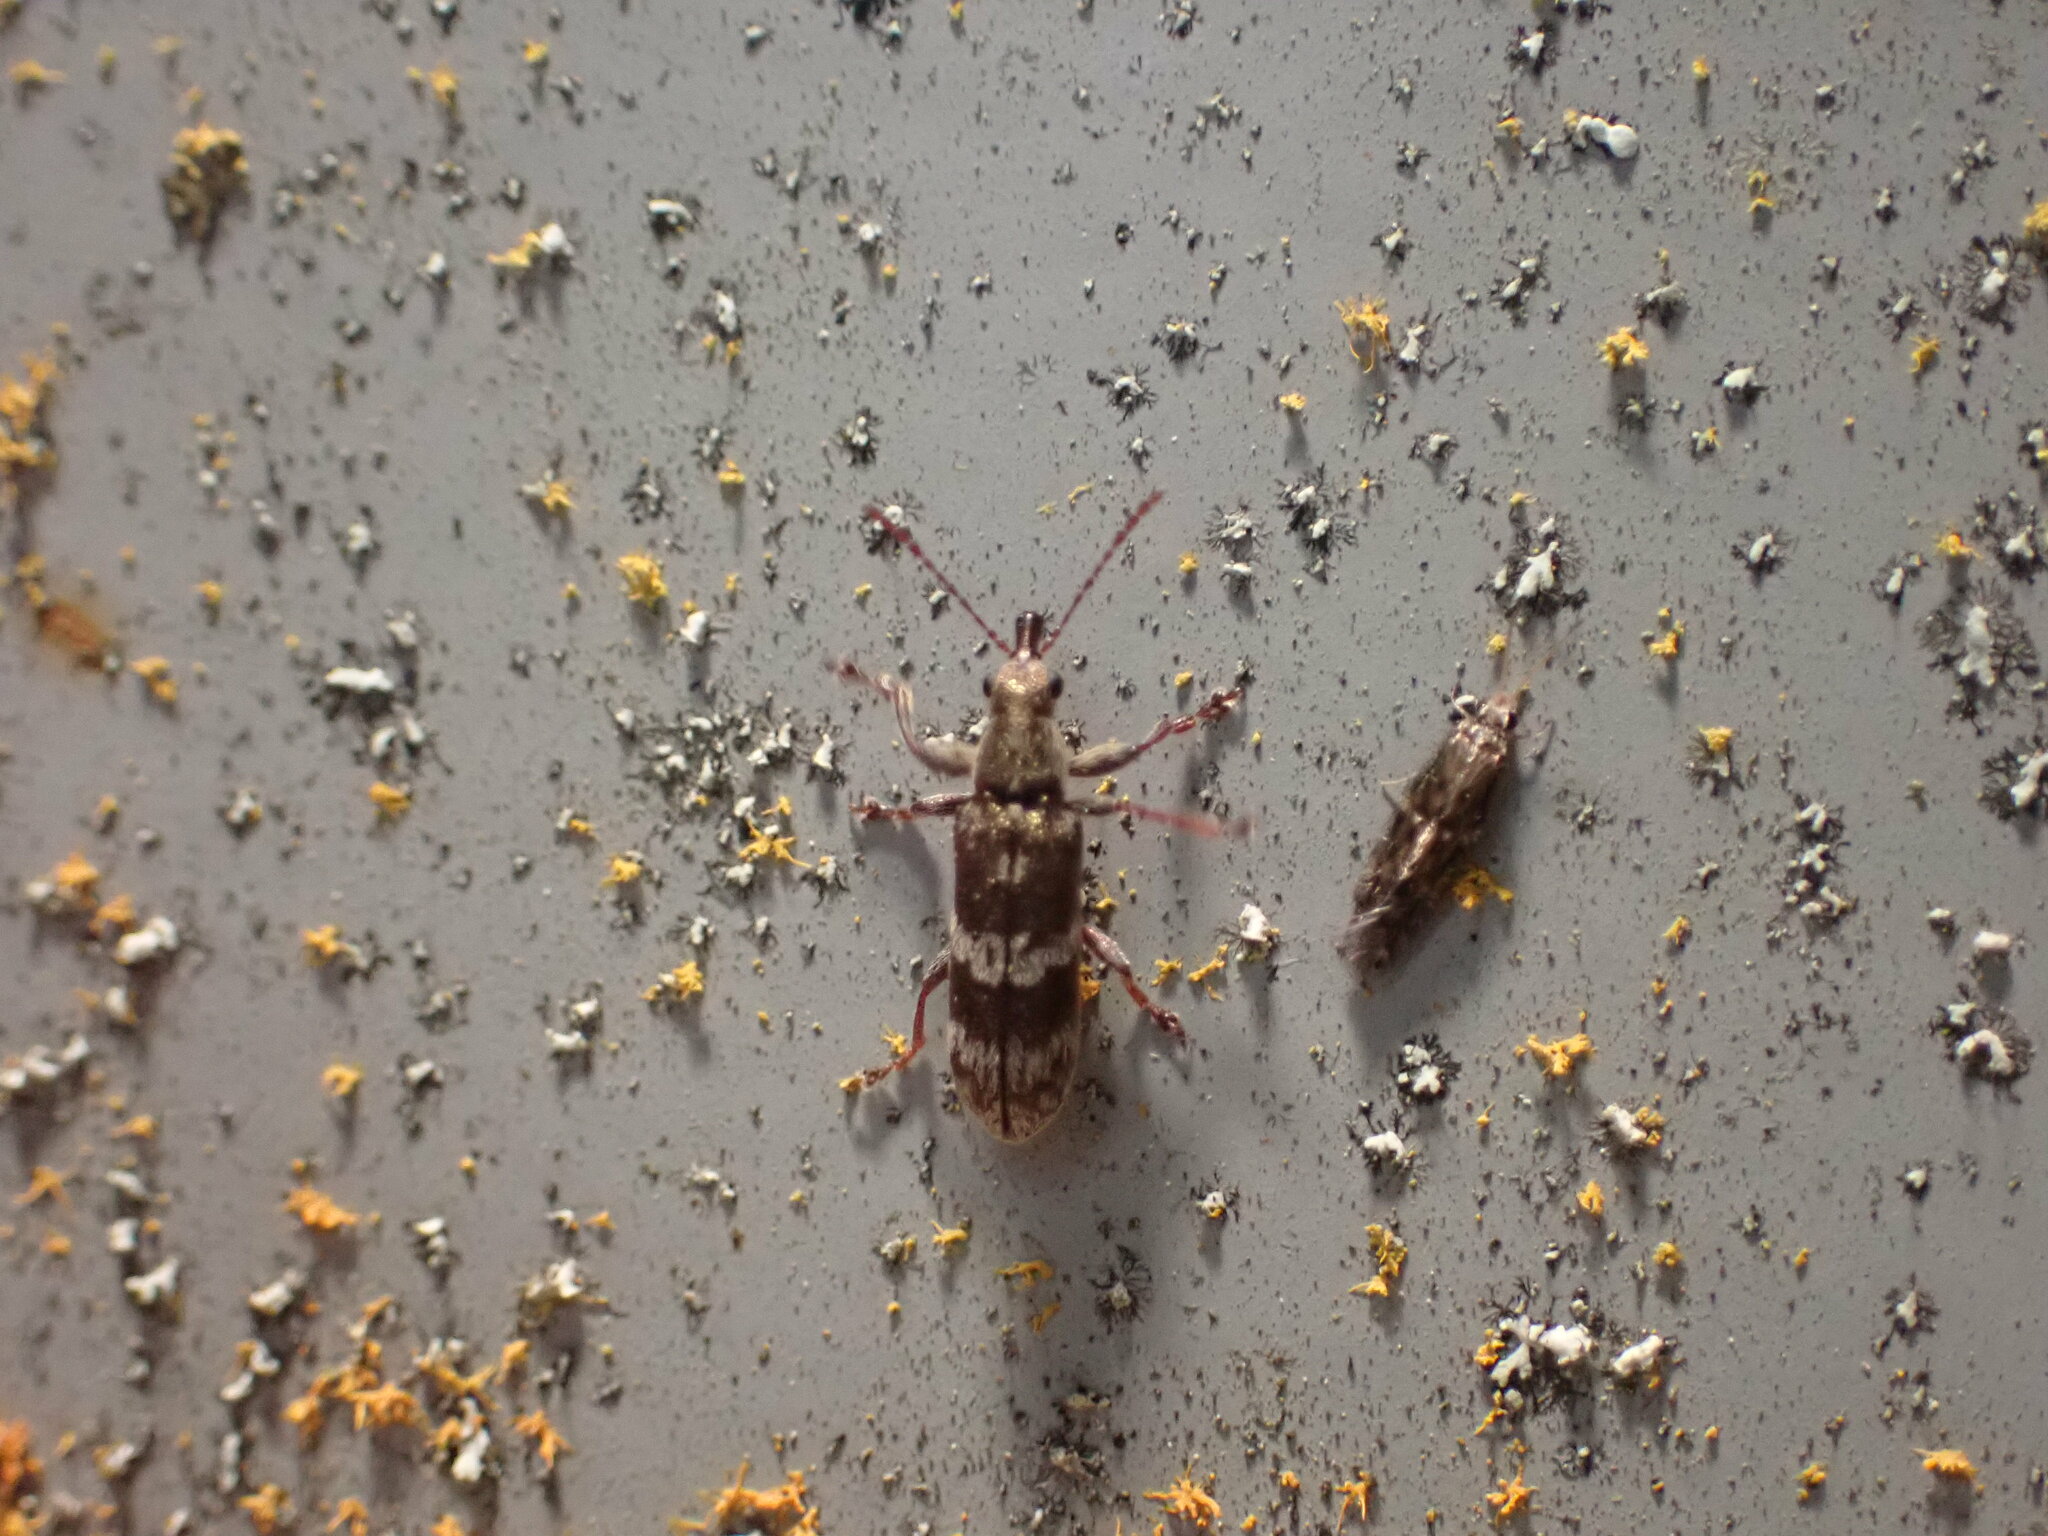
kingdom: Animalia
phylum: Arthropoda
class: Insecta
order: Coleoptera
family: Belidae
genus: Rhicnobelus
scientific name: Rhicnobelus
